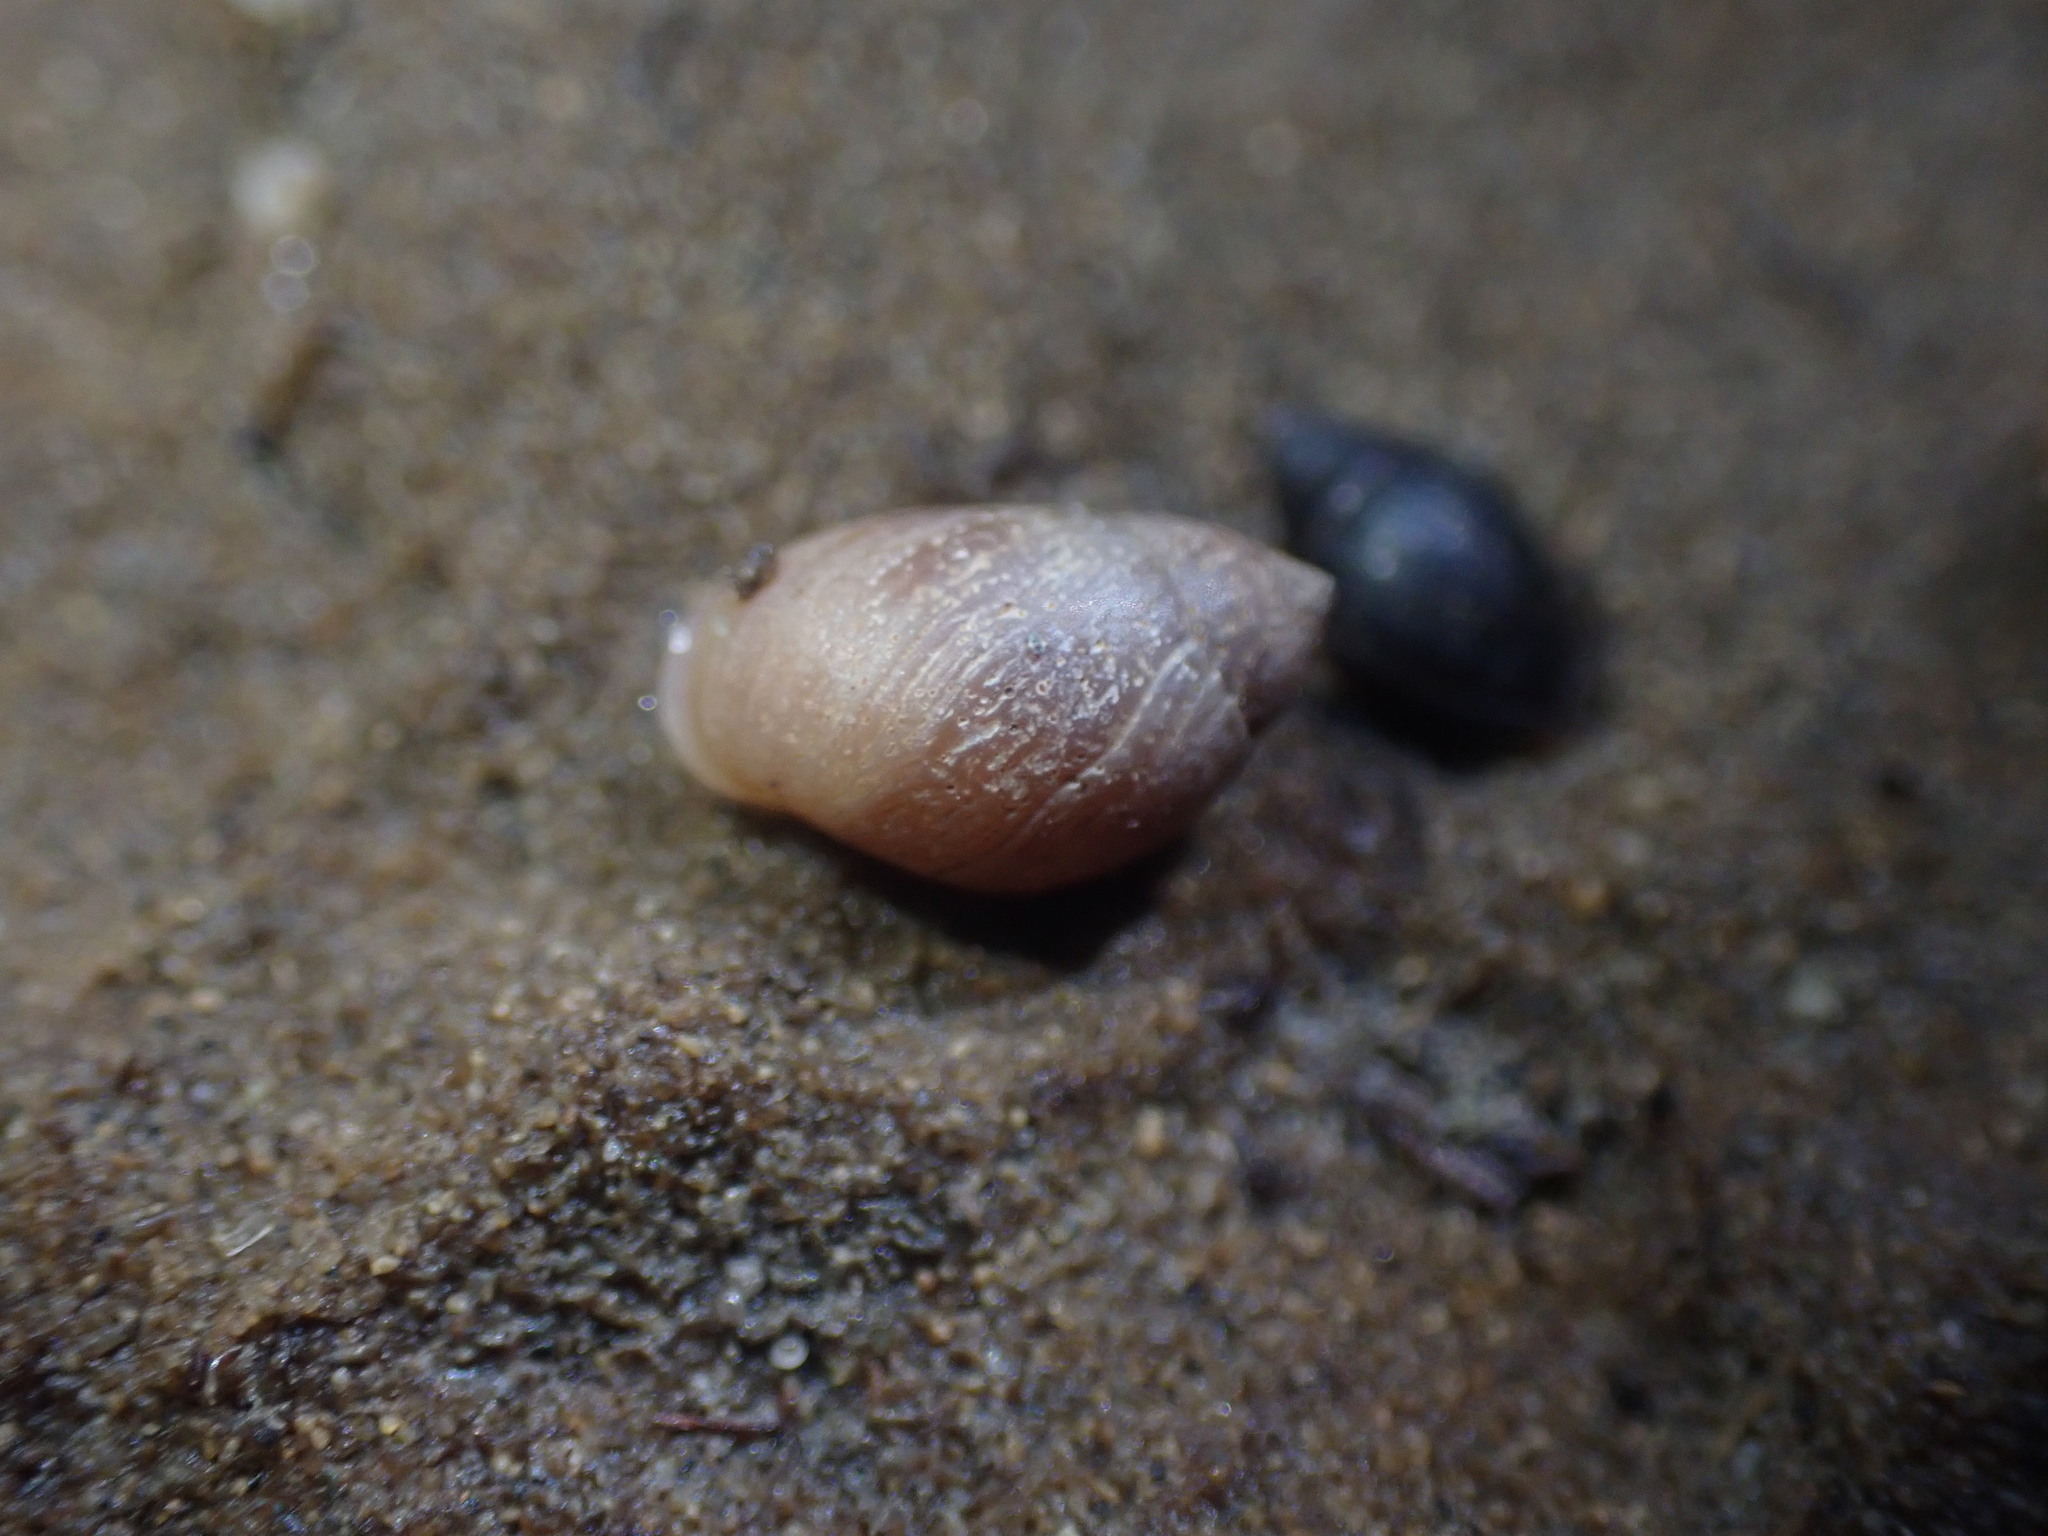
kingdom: Animalia
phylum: Mollusca
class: Gastropoda
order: Ellobiida
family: Ellobiidae
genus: Marinula
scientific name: Marinula filholi
